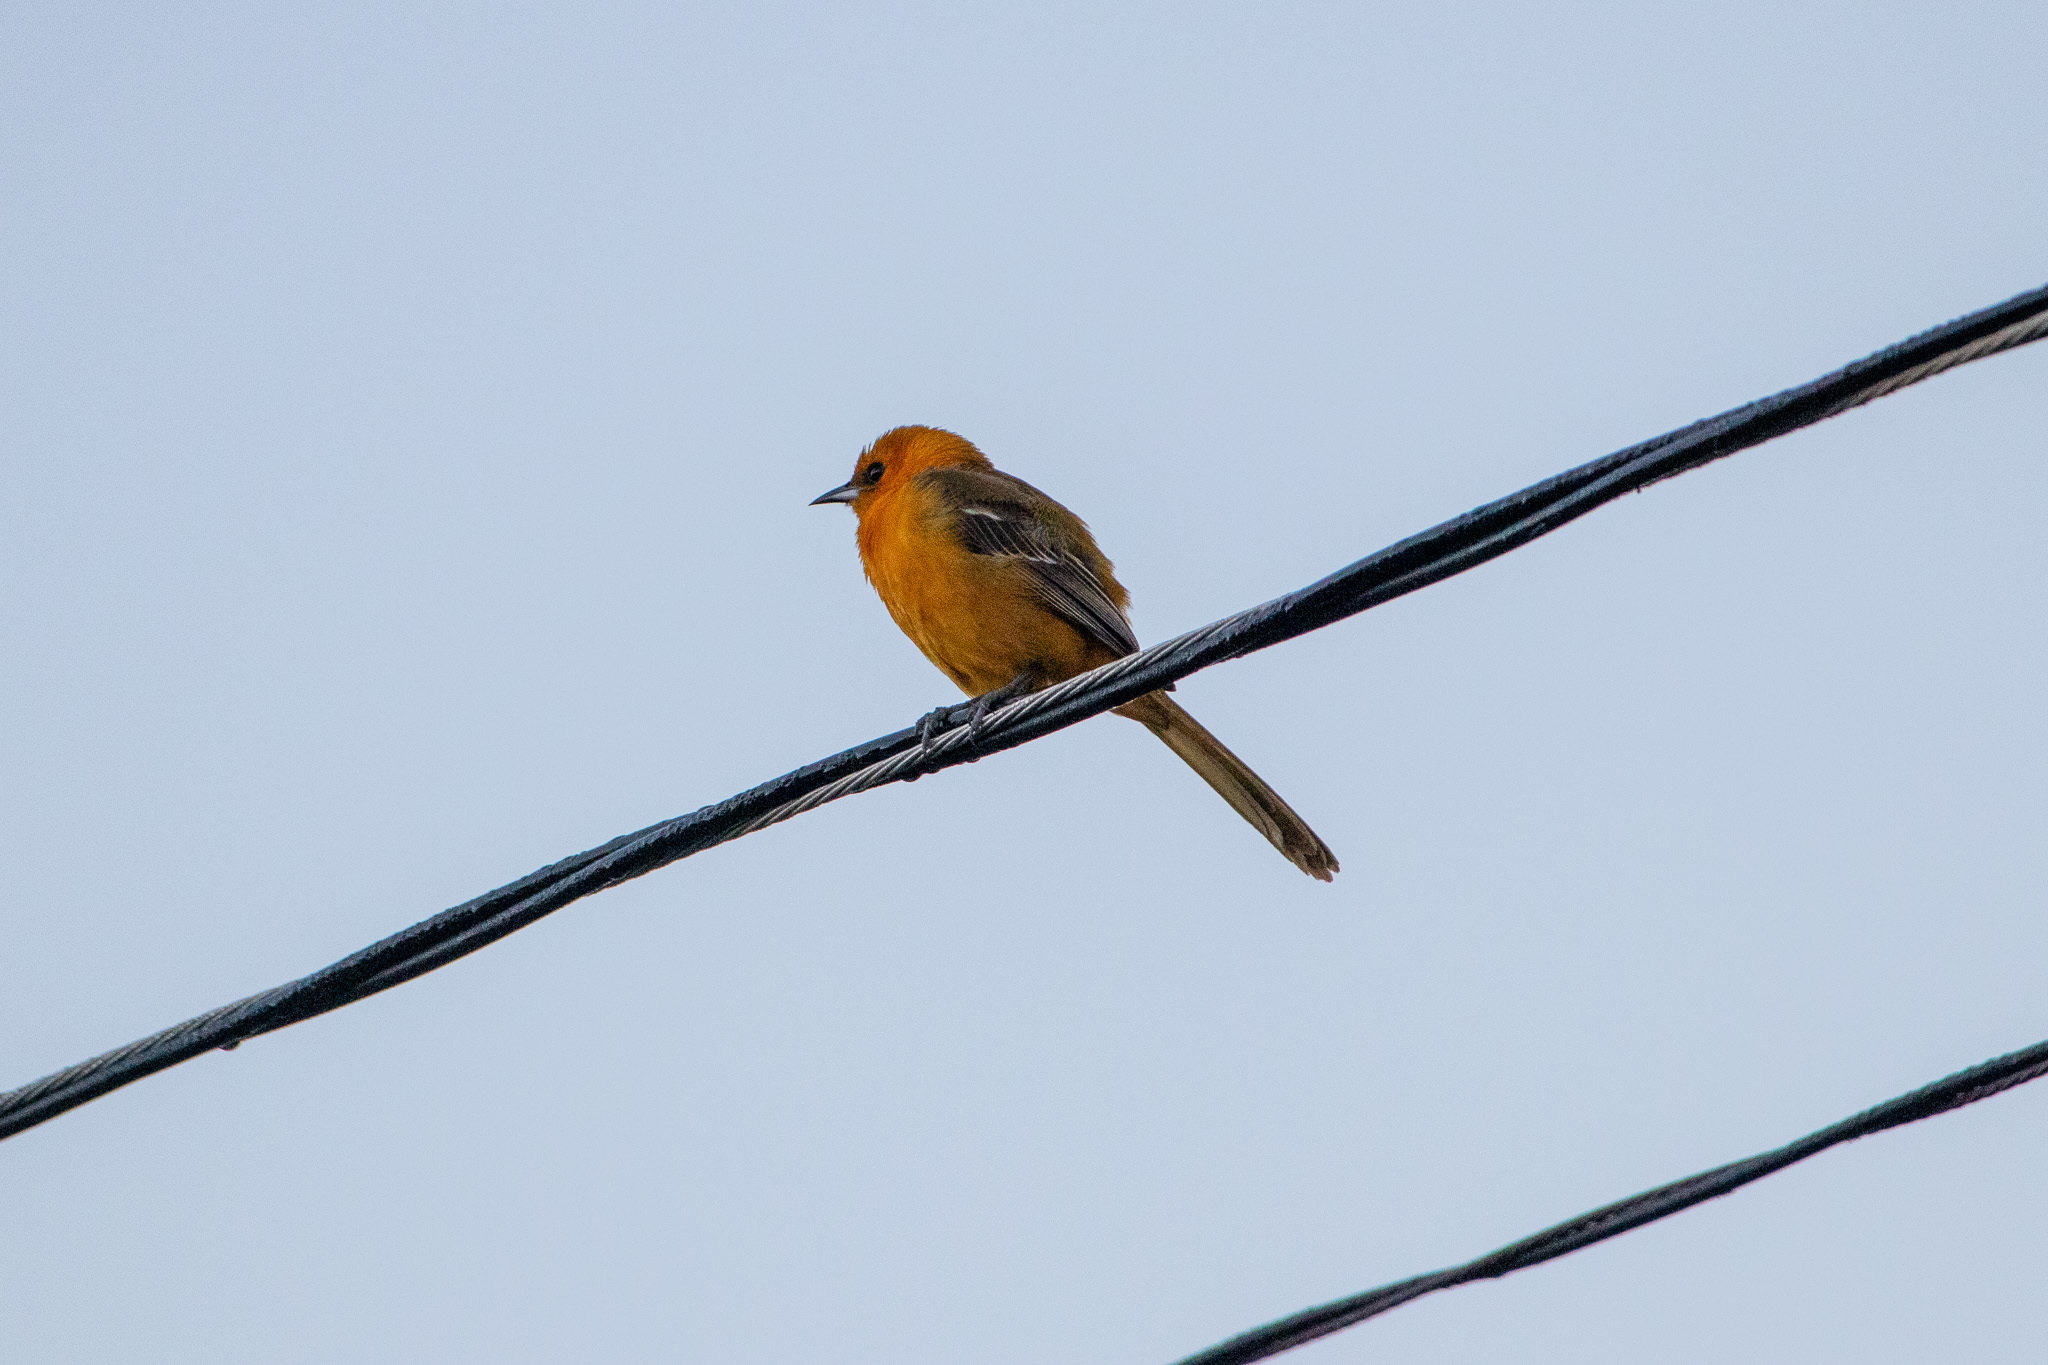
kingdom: Animalia
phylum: Chordata
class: Aves
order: Passeriformes
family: Icteridae
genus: Icterus
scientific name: Icterus cucullatus
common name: Hooded oriole
